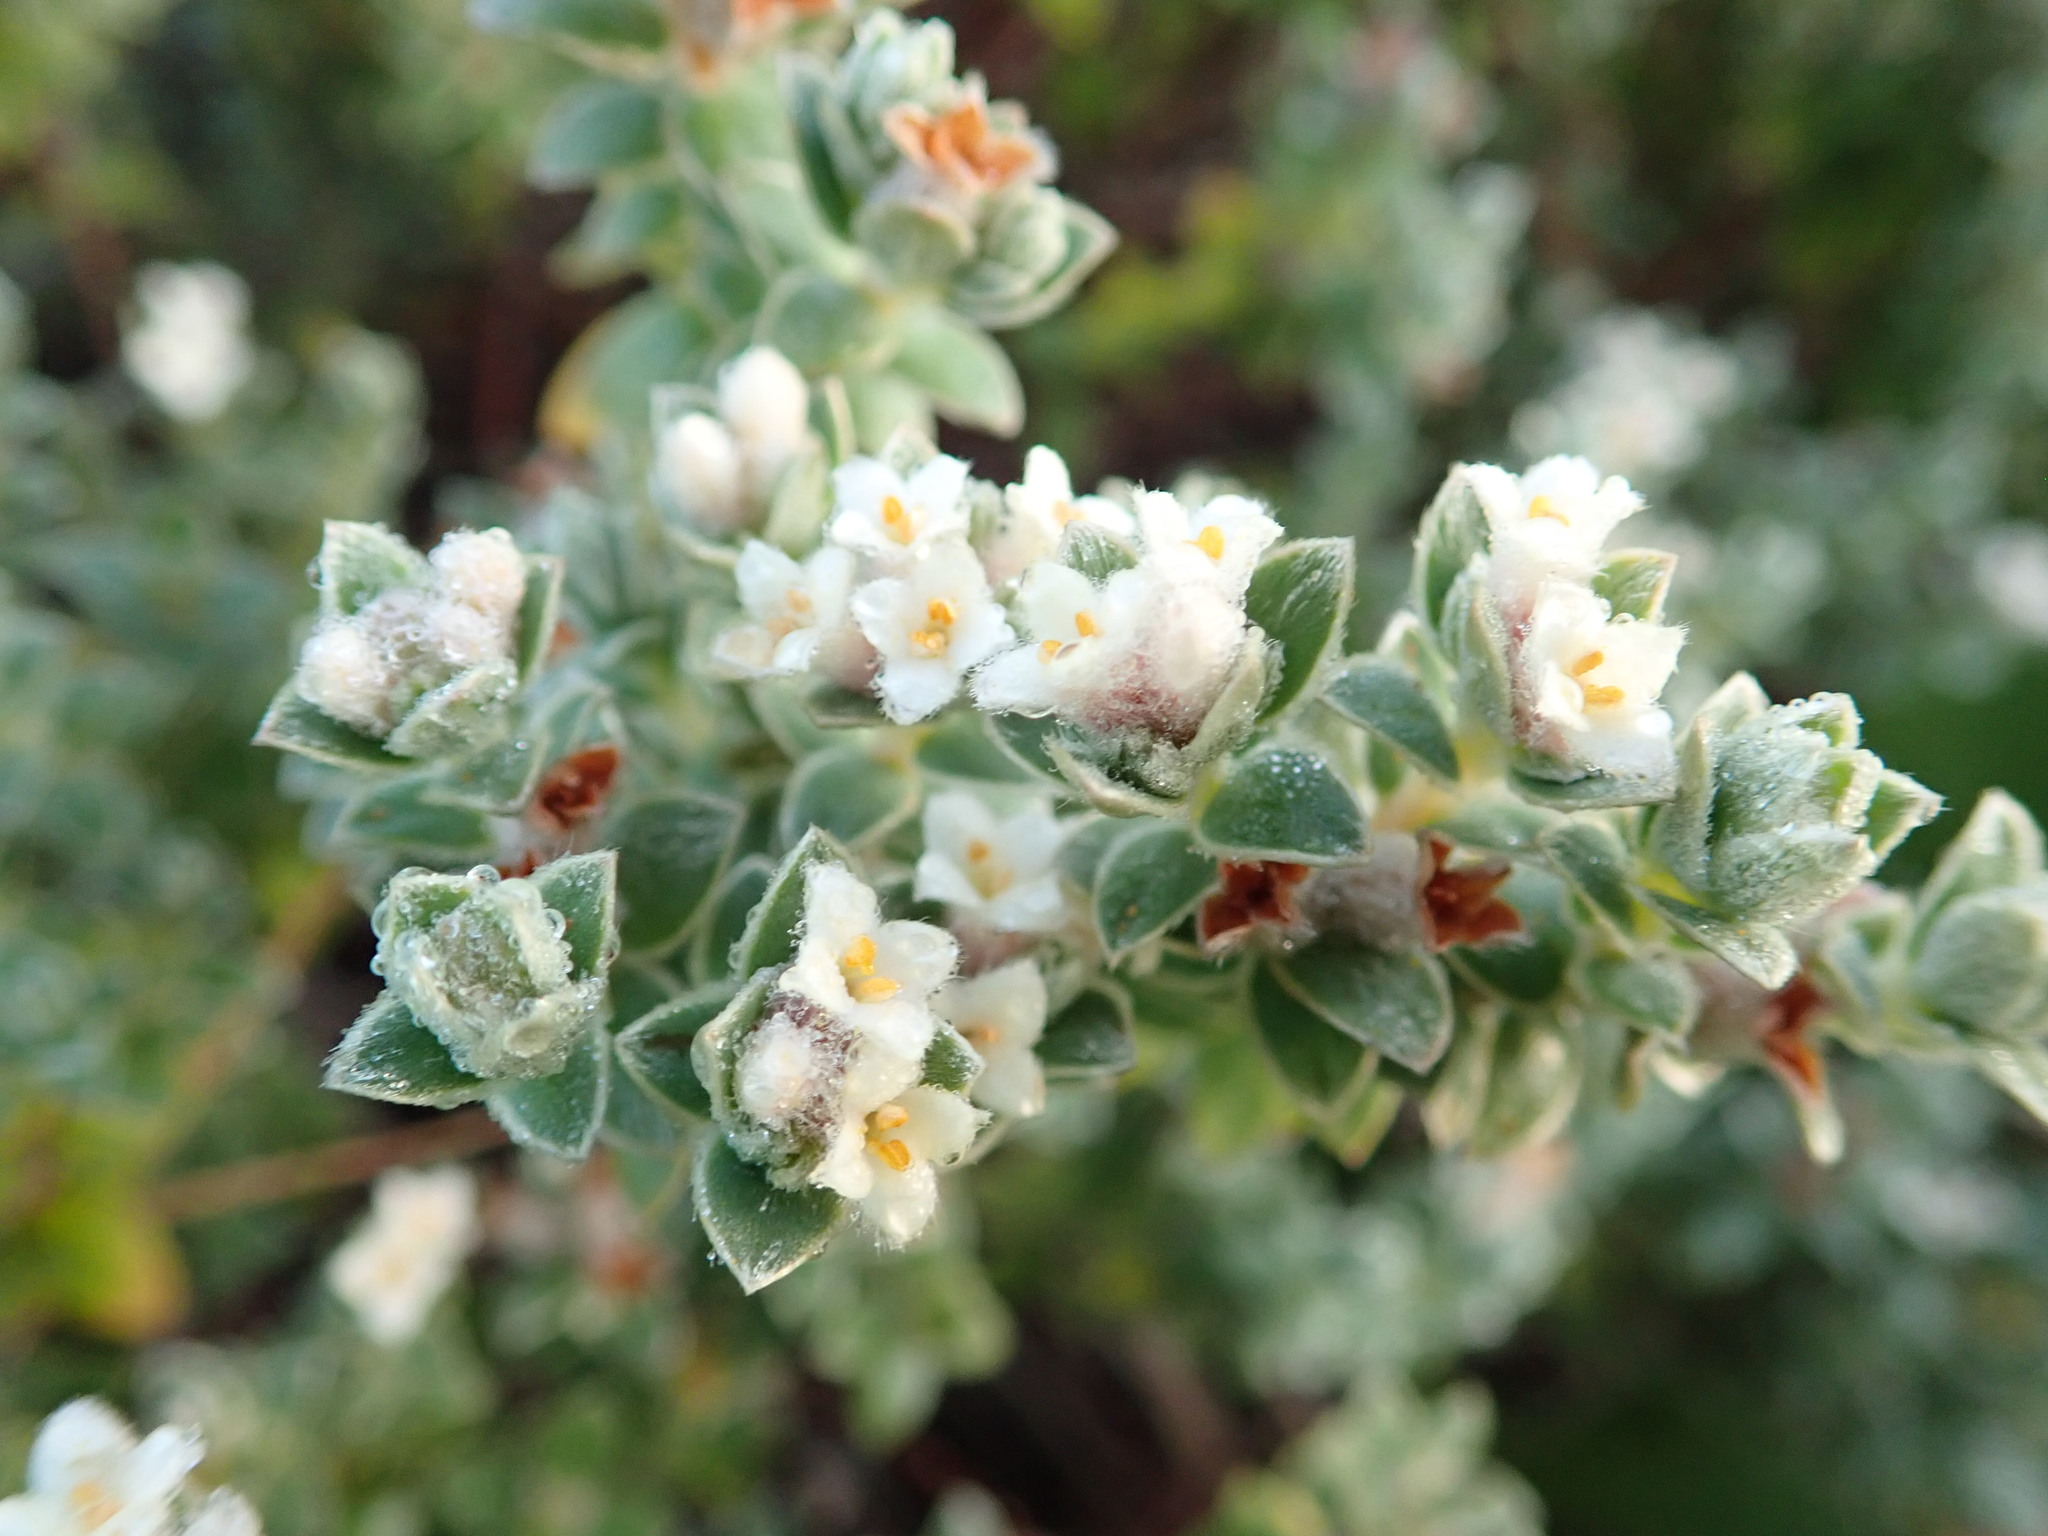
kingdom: Plantae
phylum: Tracheophyta
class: Magnoliopsida
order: Malvales
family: Thymelaeaceae
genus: Pimelea
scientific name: Pimelea villosa
